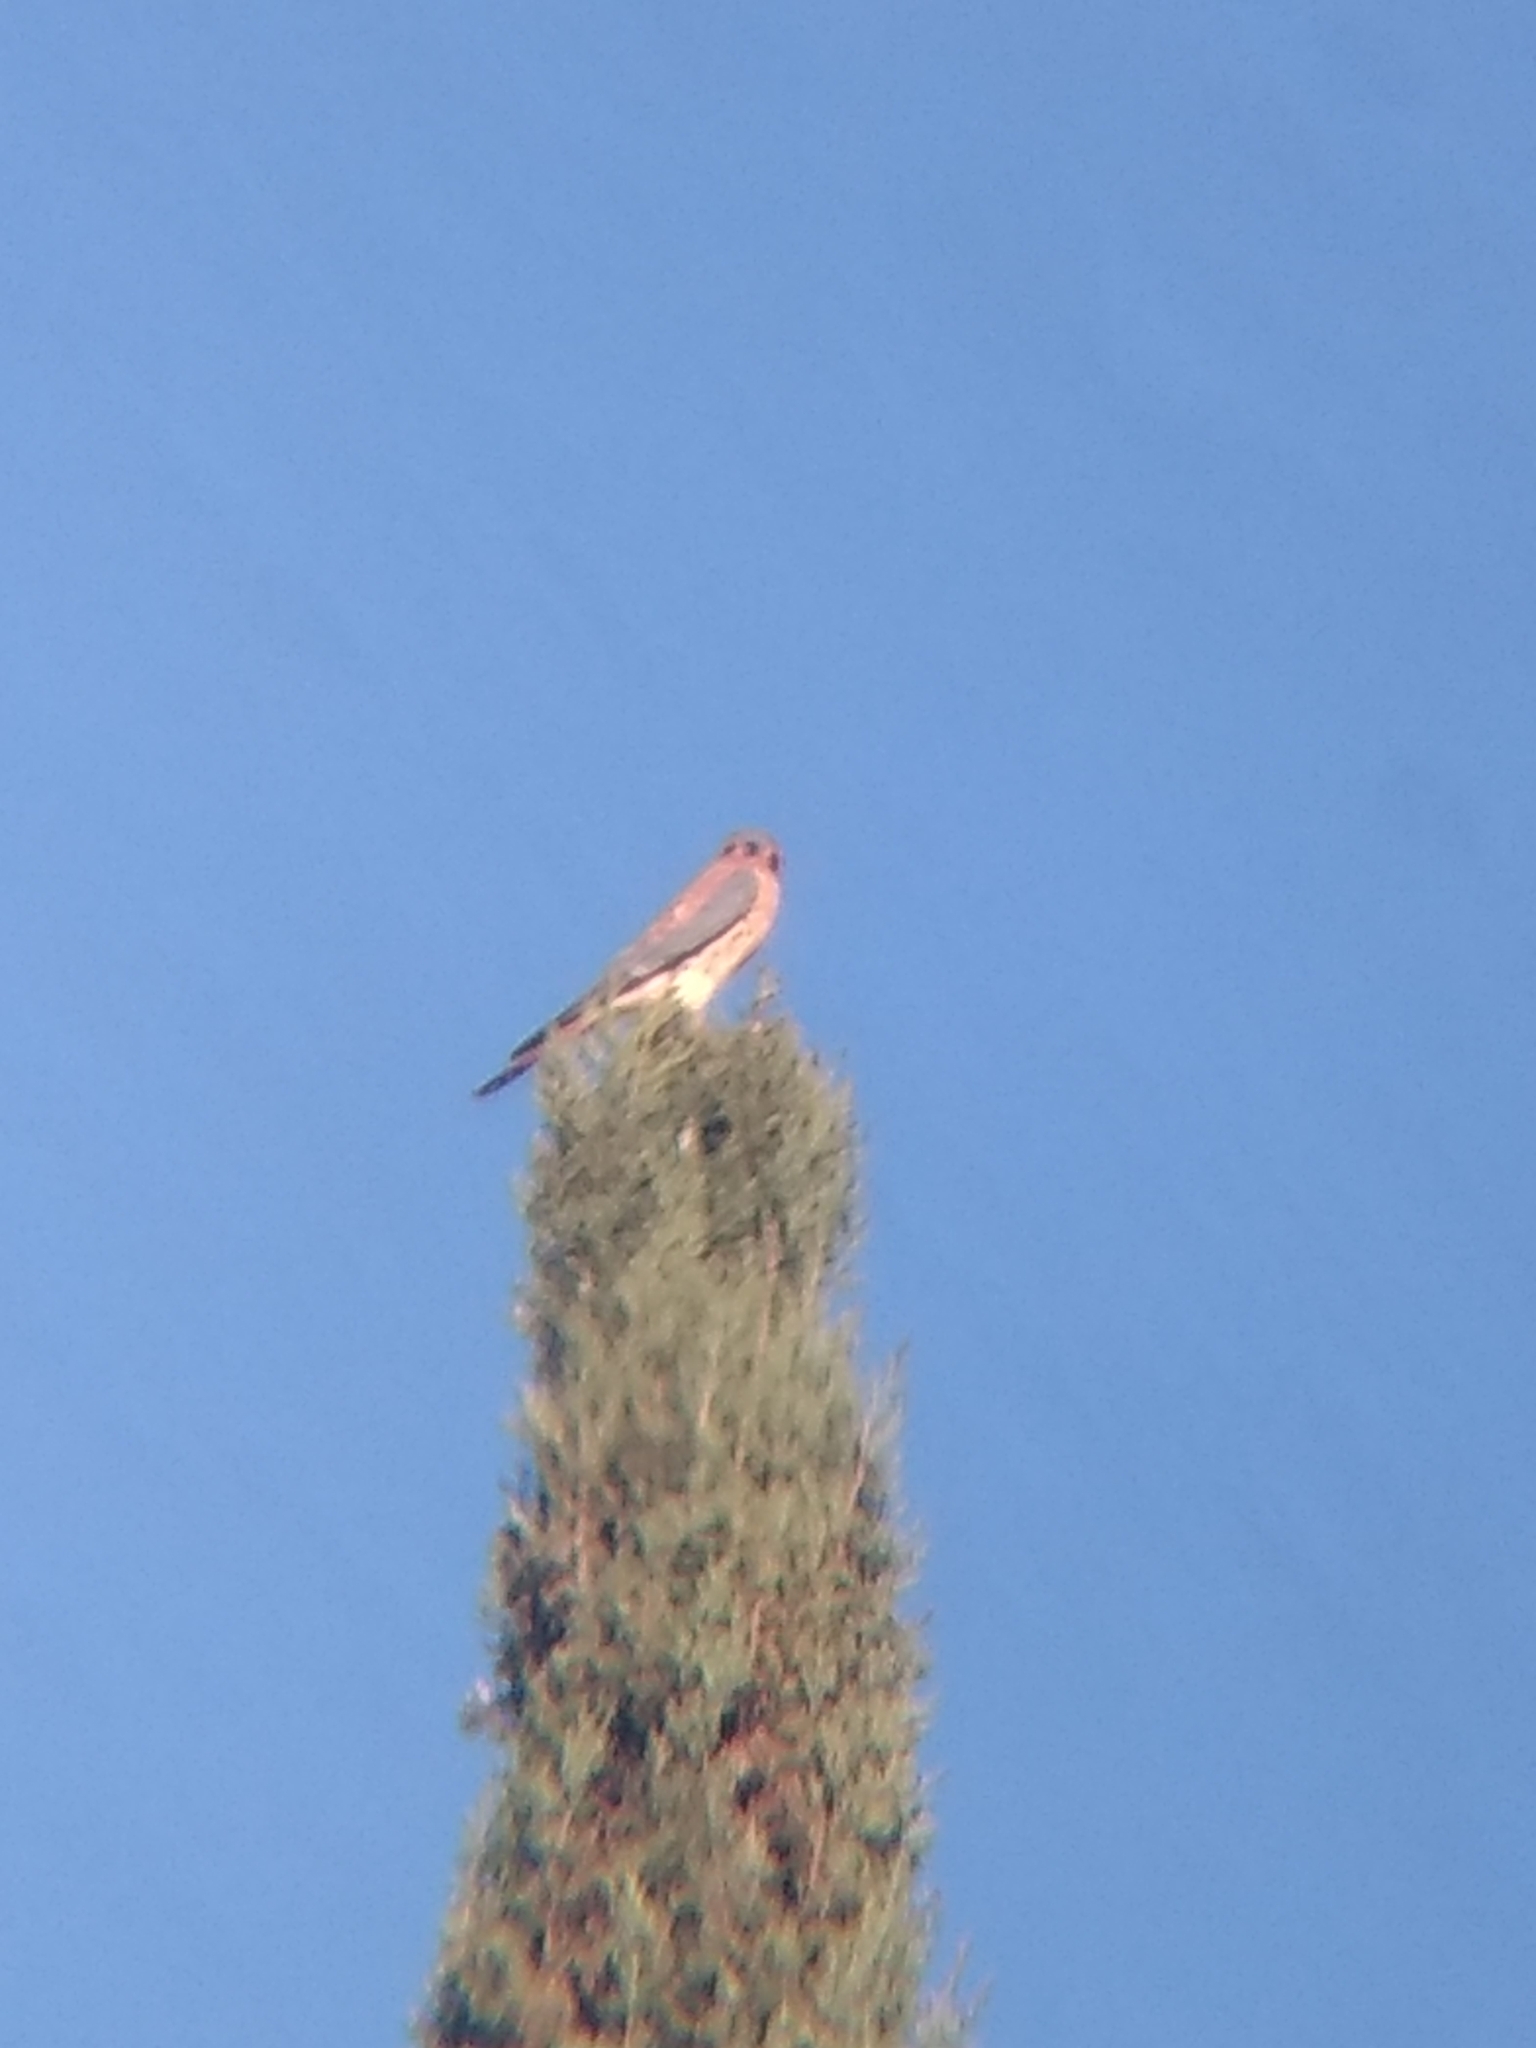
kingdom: Animalia
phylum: Chordata
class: Aves
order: Falconiformes
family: Falconidae
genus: Falco
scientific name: Falco sparverius
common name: American kestrel
